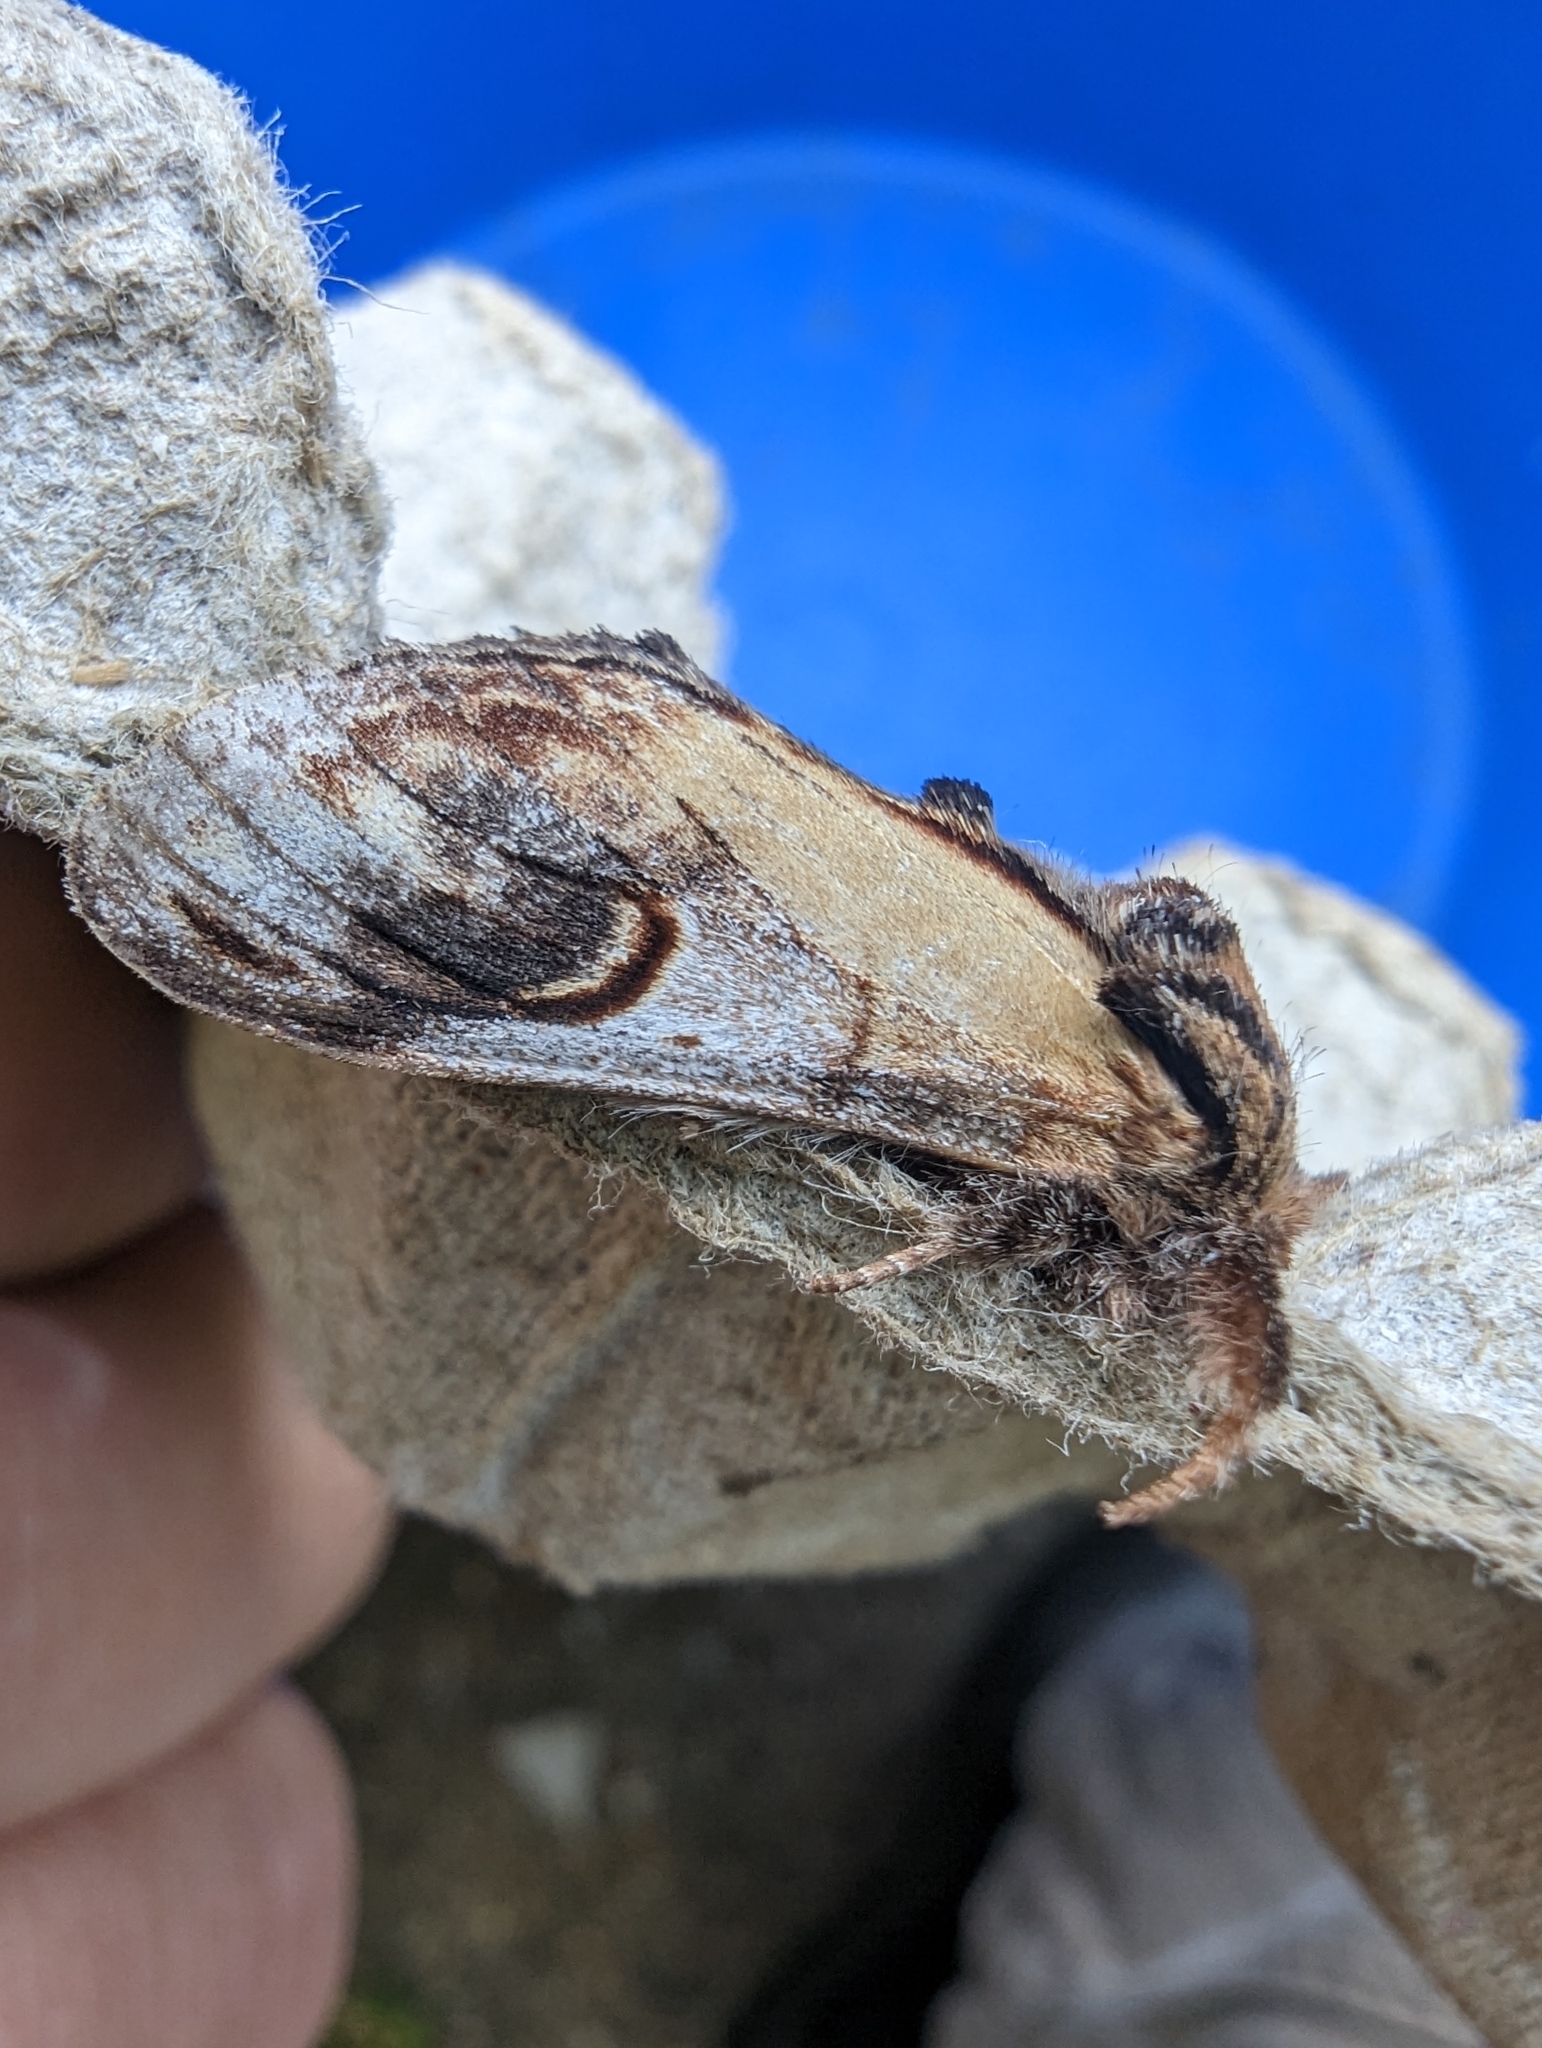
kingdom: Animalia
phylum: Arthropoda
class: Insecta
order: Lepidoptera
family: Notodontidae
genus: Notodonta
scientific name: Notodonta ziczac
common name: Pebble prominent
